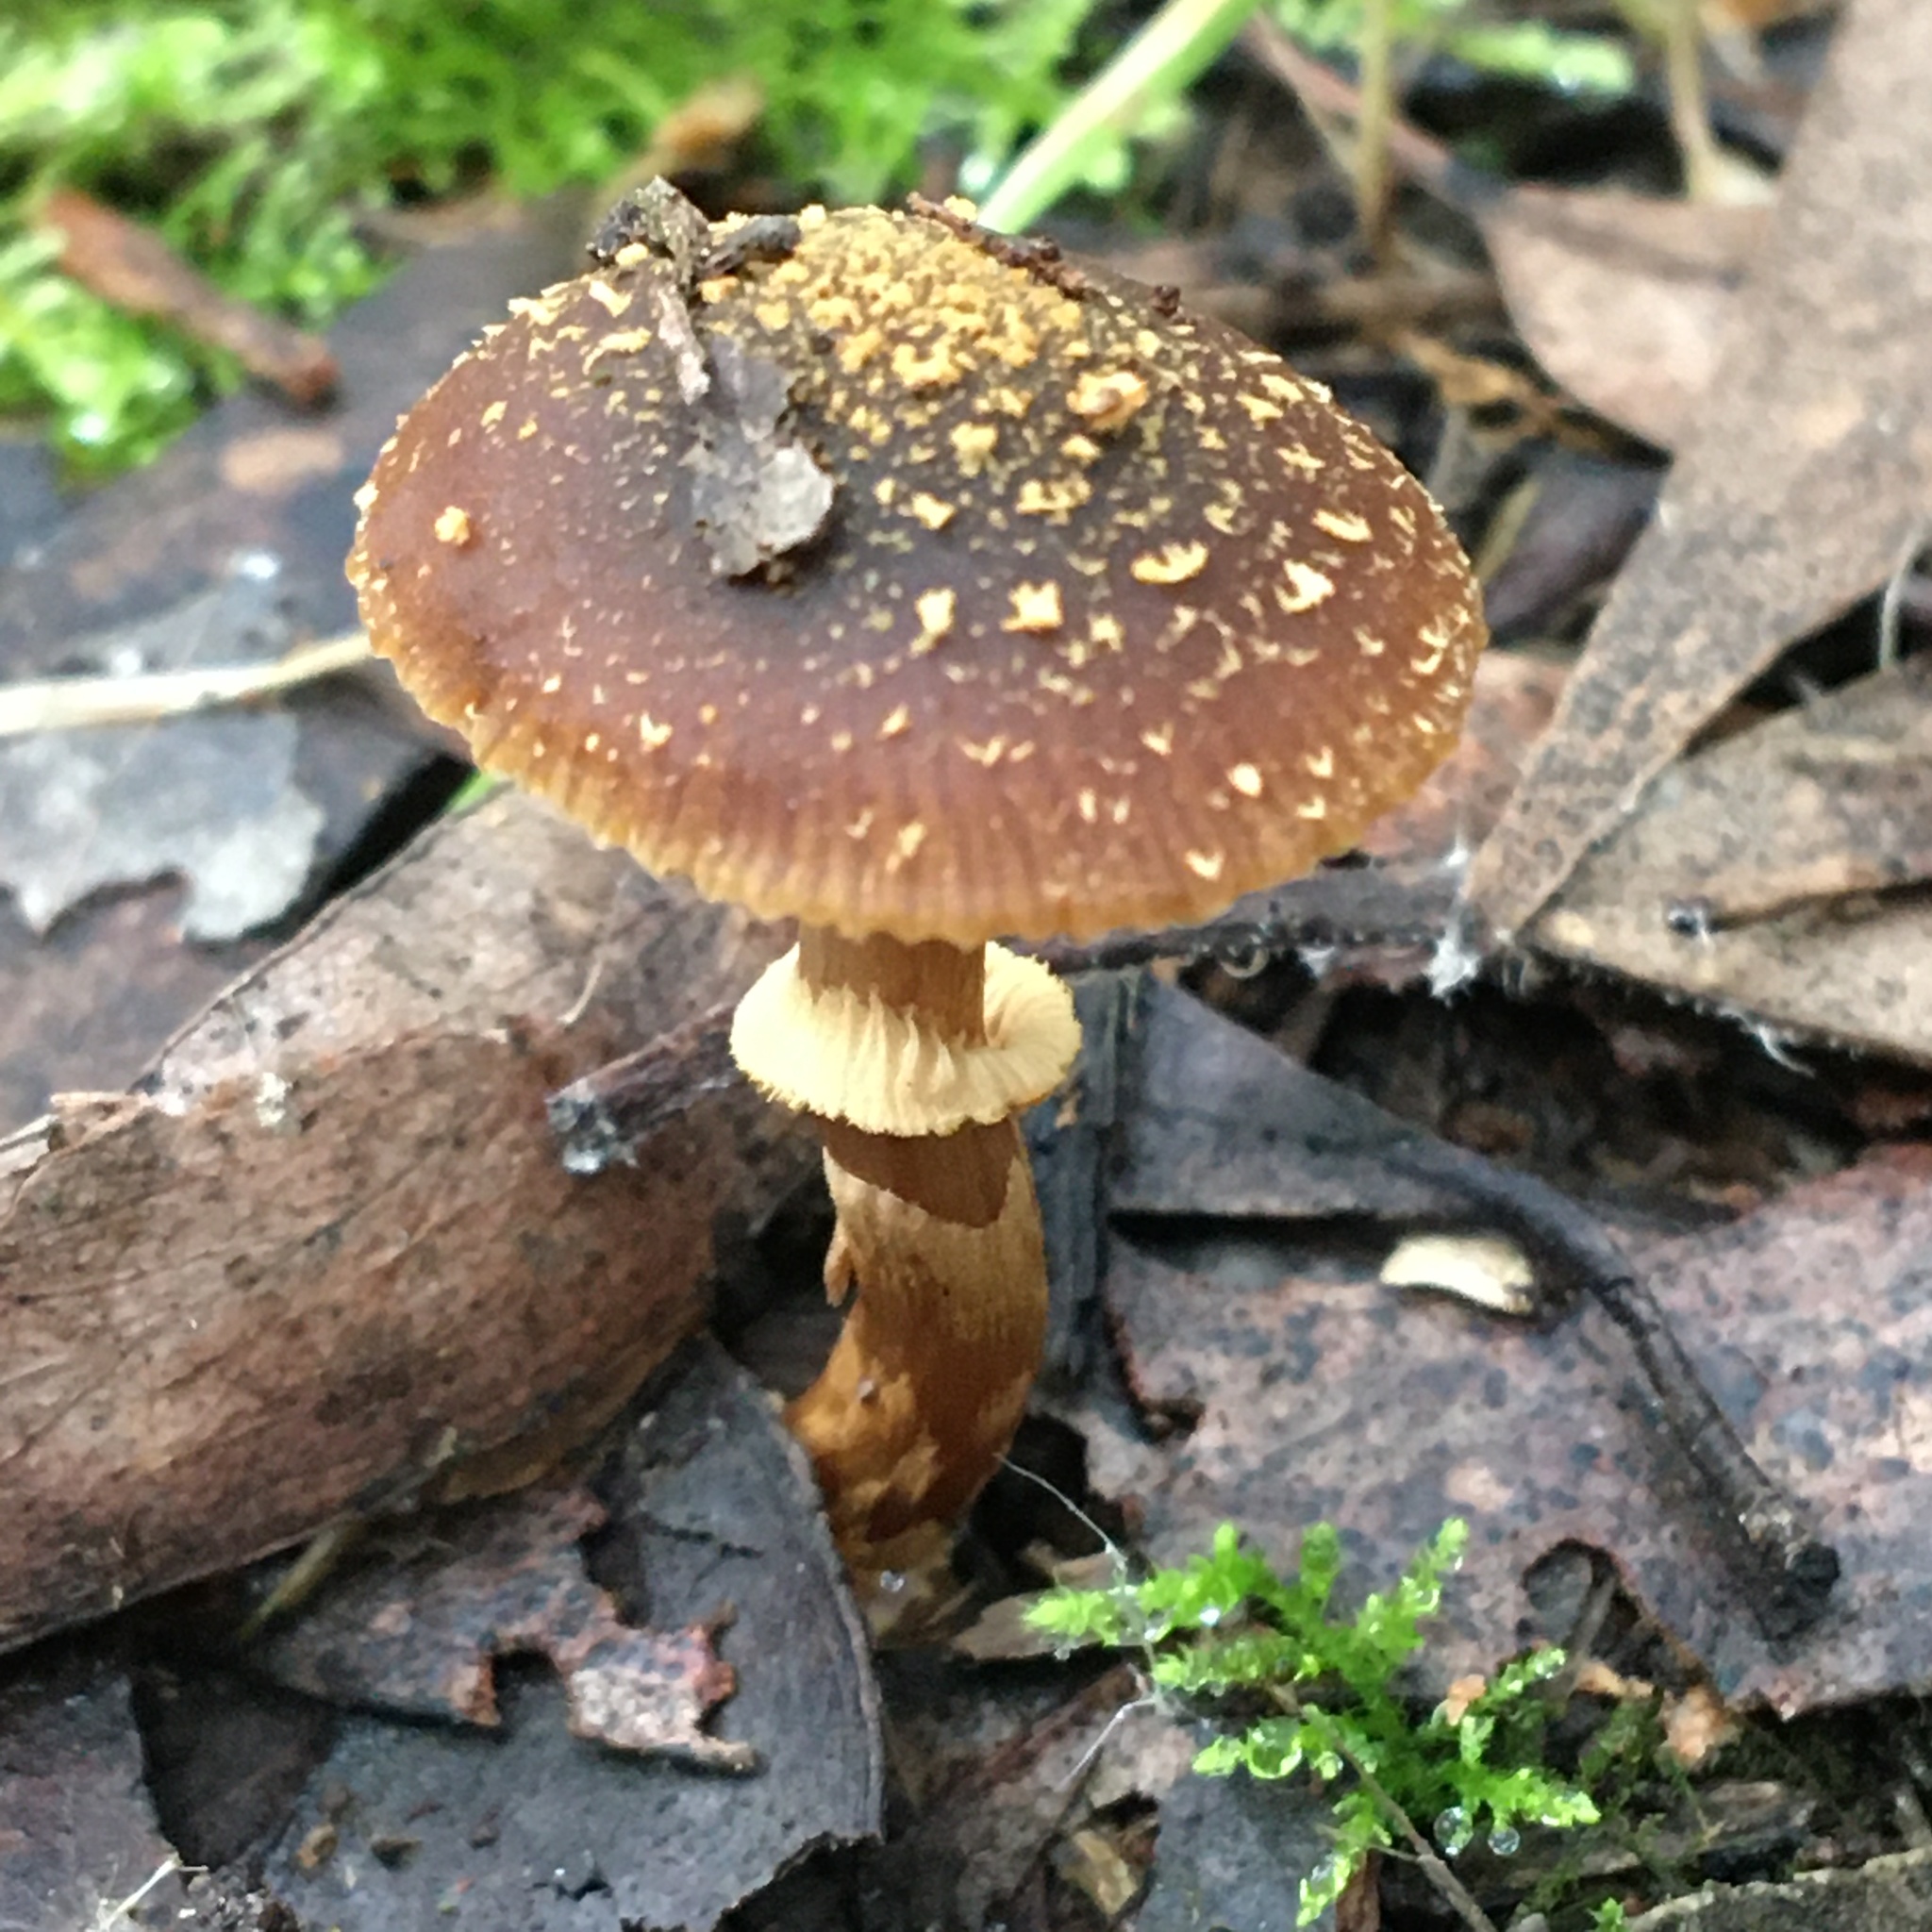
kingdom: Fungi
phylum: Basidiomycota
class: Agaricomycetes
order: Agaricales
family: Bolbitiaceae
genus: Descolea
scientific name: Descolea recedens
